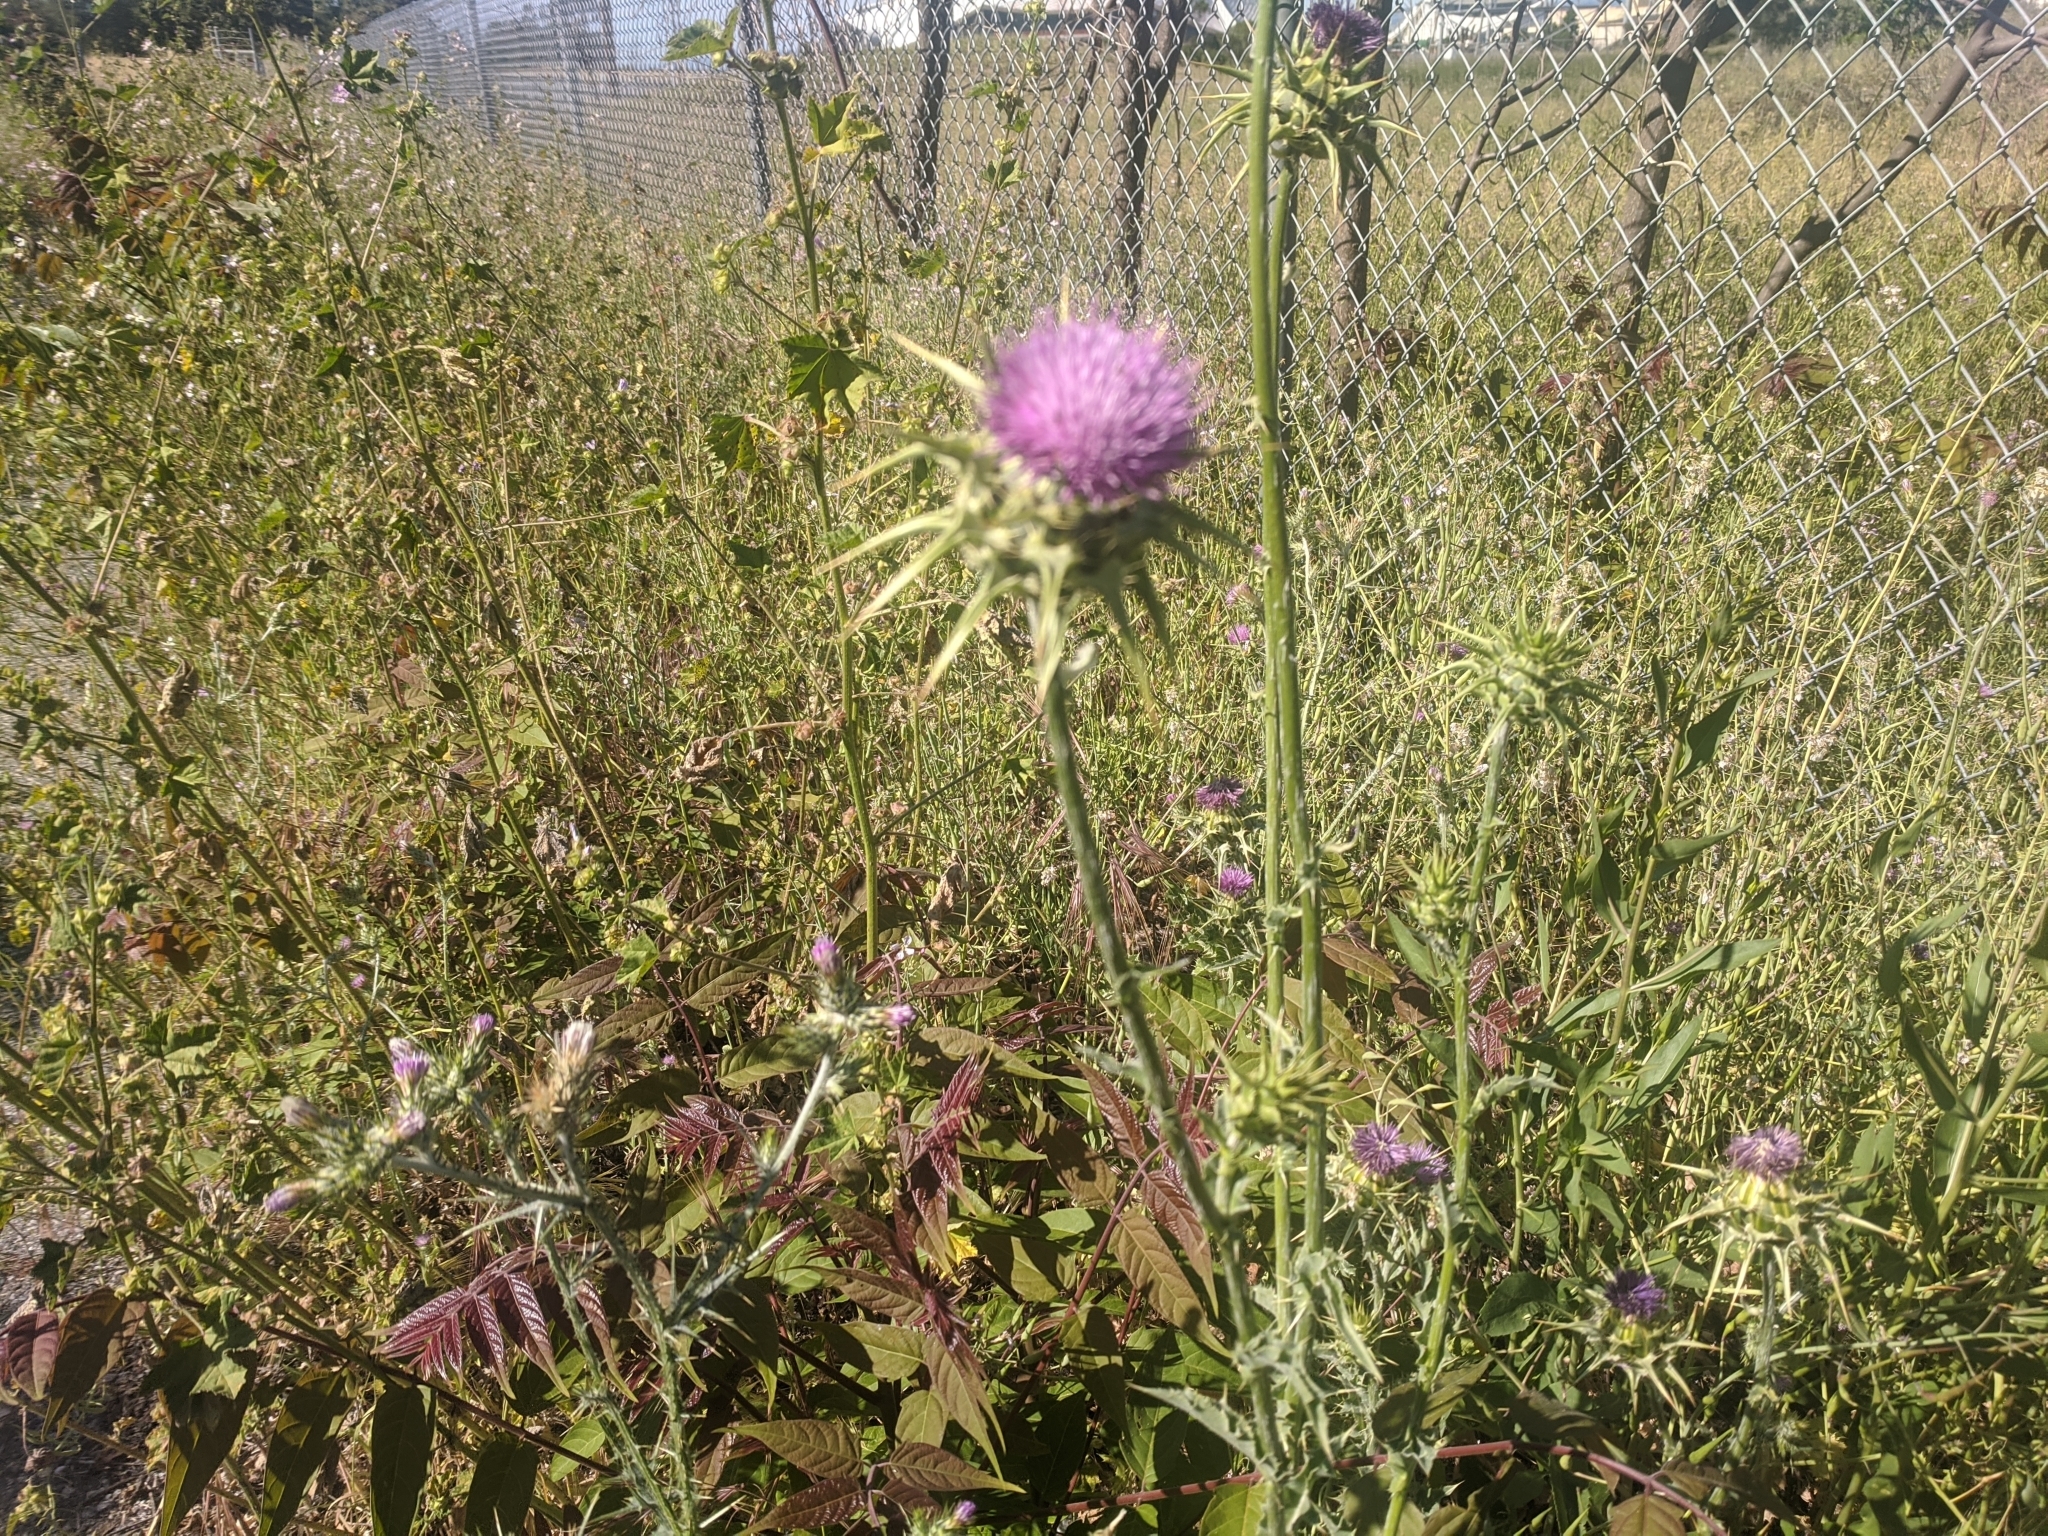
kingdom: Plantae
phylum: Tracheophyta
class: Magnoliopsida
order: Asterales
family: Asteraceae
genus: Silybum
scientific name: Silybum marianum
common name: Milk thistle
